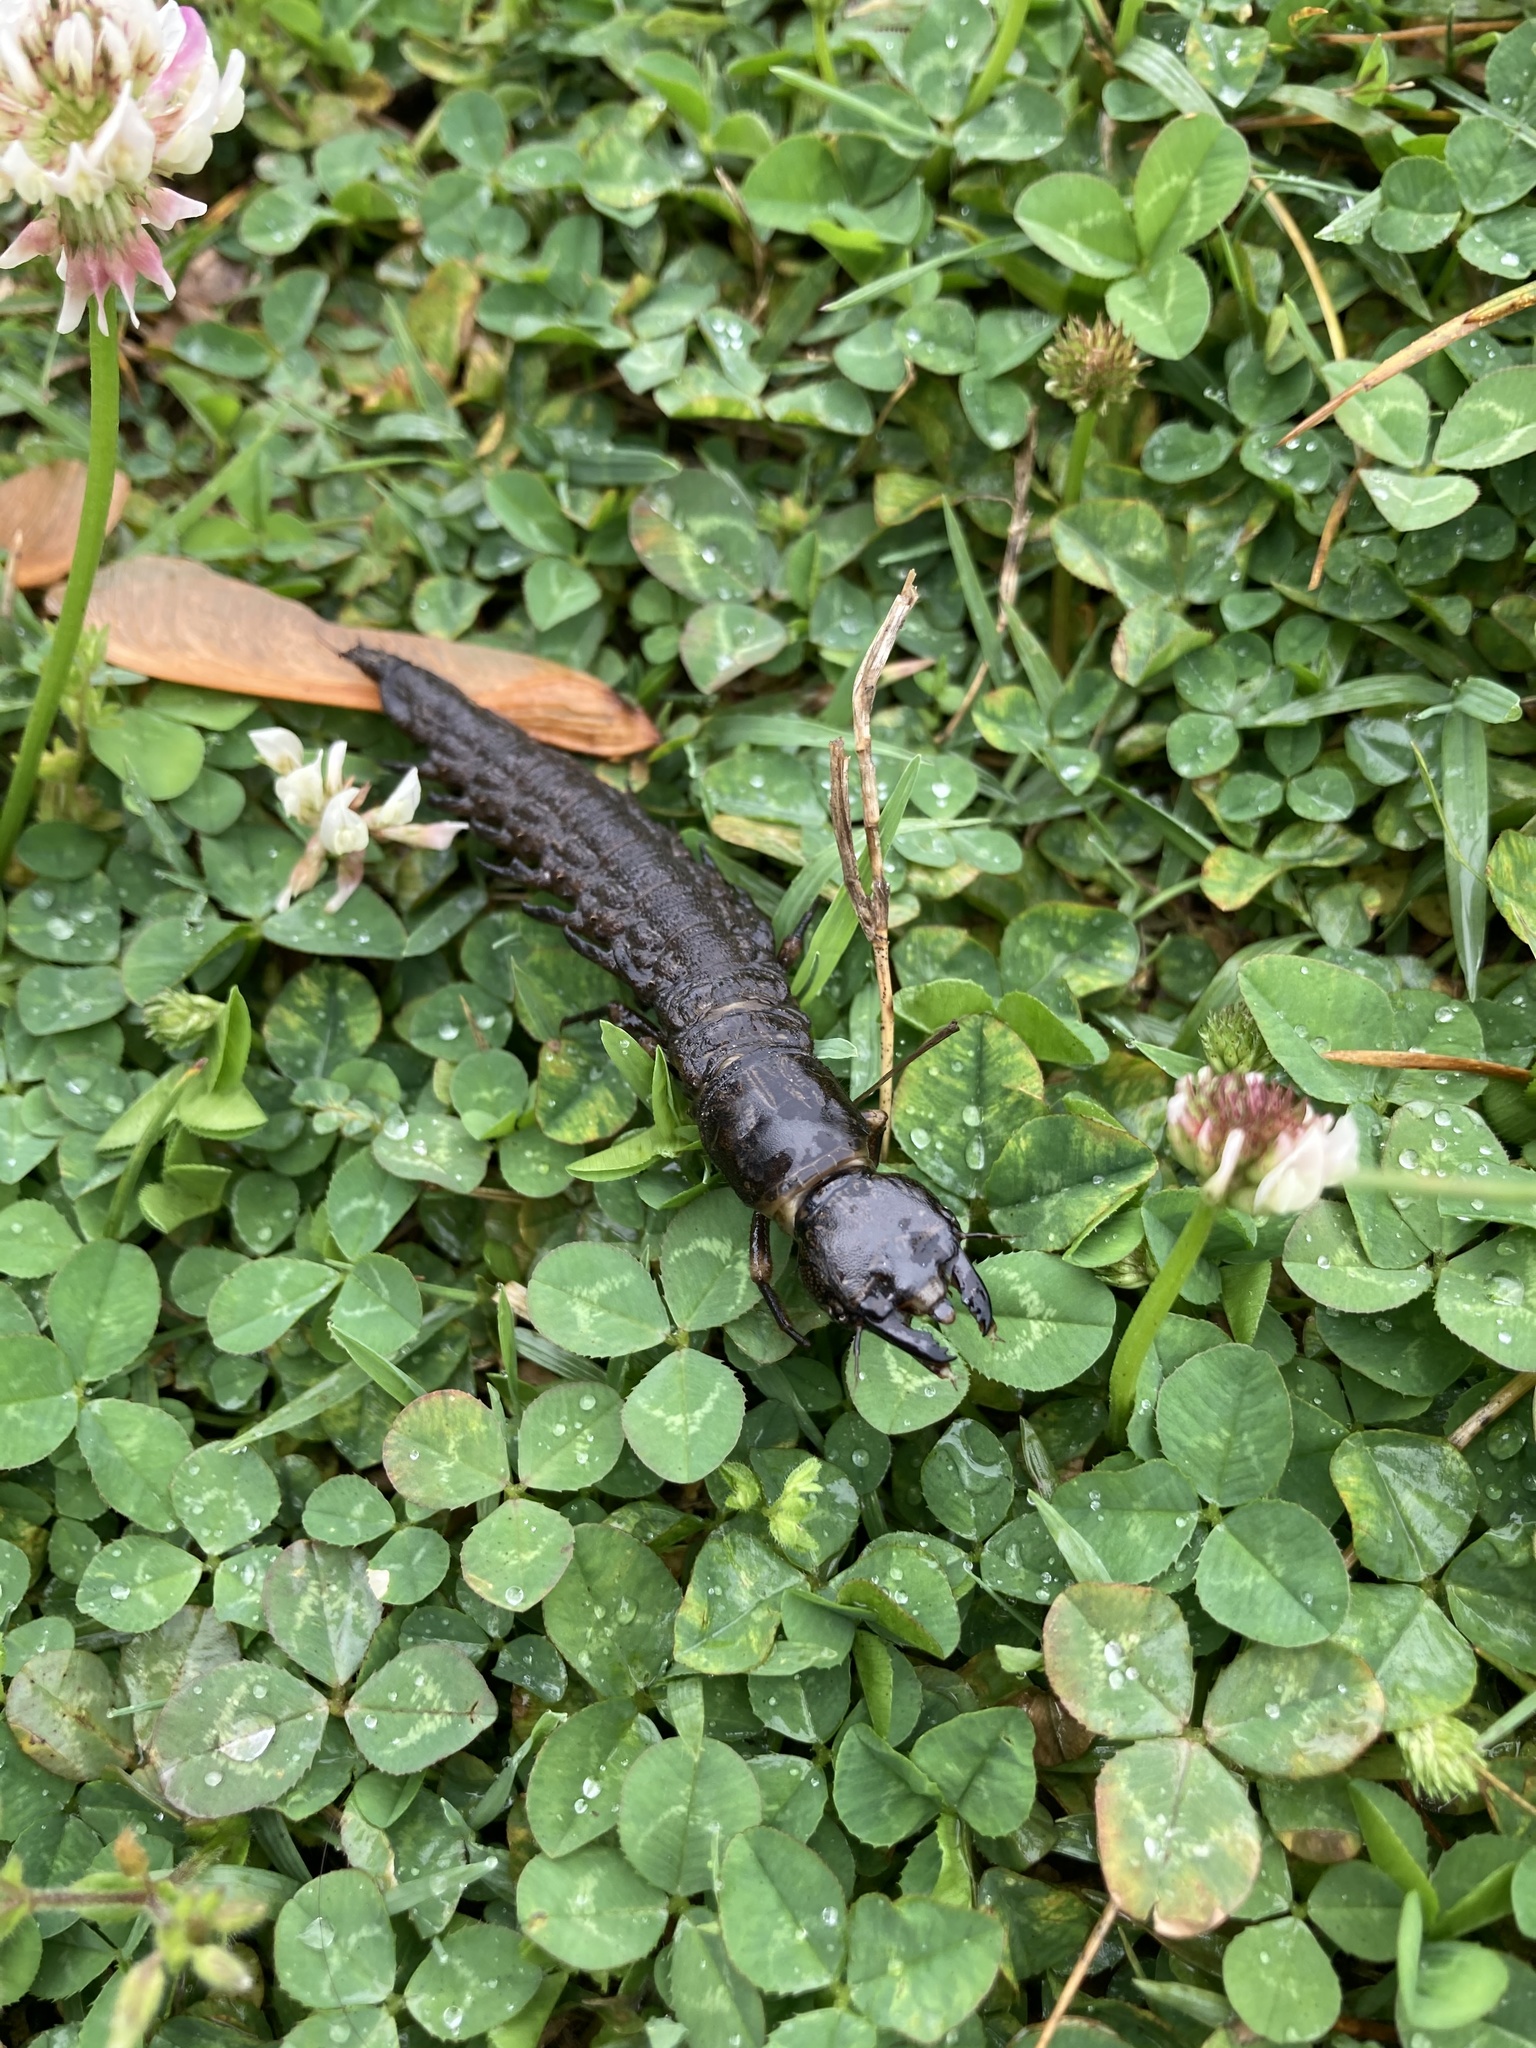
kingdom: Animalia
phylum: Arthropoda
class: Insecta
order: Megaloptera
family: Corydalidae
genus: Corydalus
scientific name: Corydalus cornutus
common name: Dobsonfly
